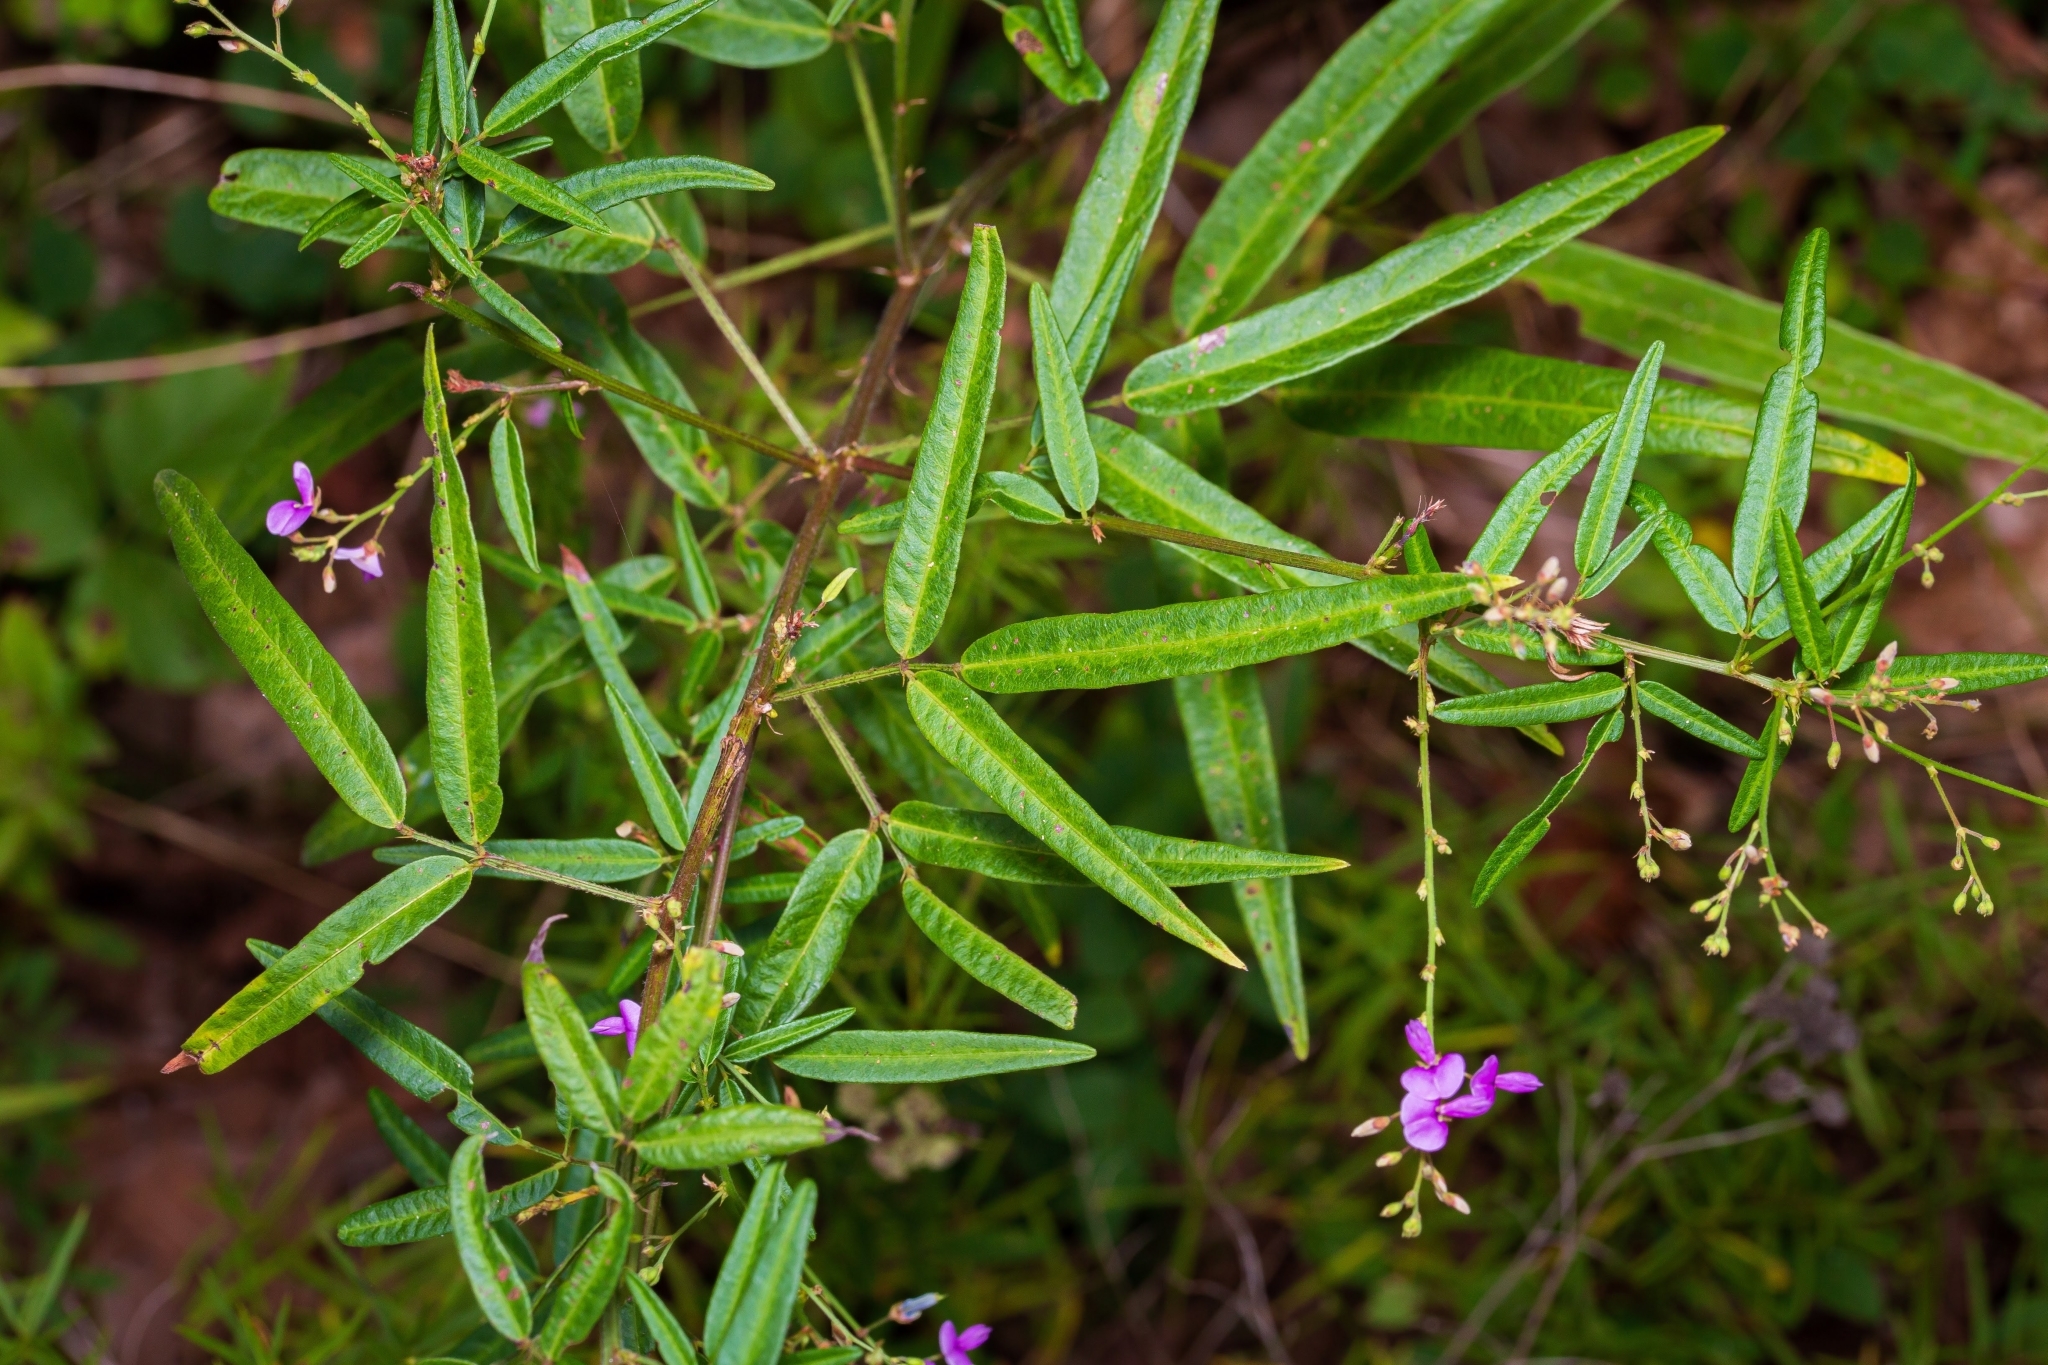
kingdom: Plantae
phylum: Tracheophyta
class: Magnoliopsida
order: Fabales
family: Fabaceae
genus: Desmodium
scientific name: Desmodium paniculatum
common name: Panicled tick-clover
